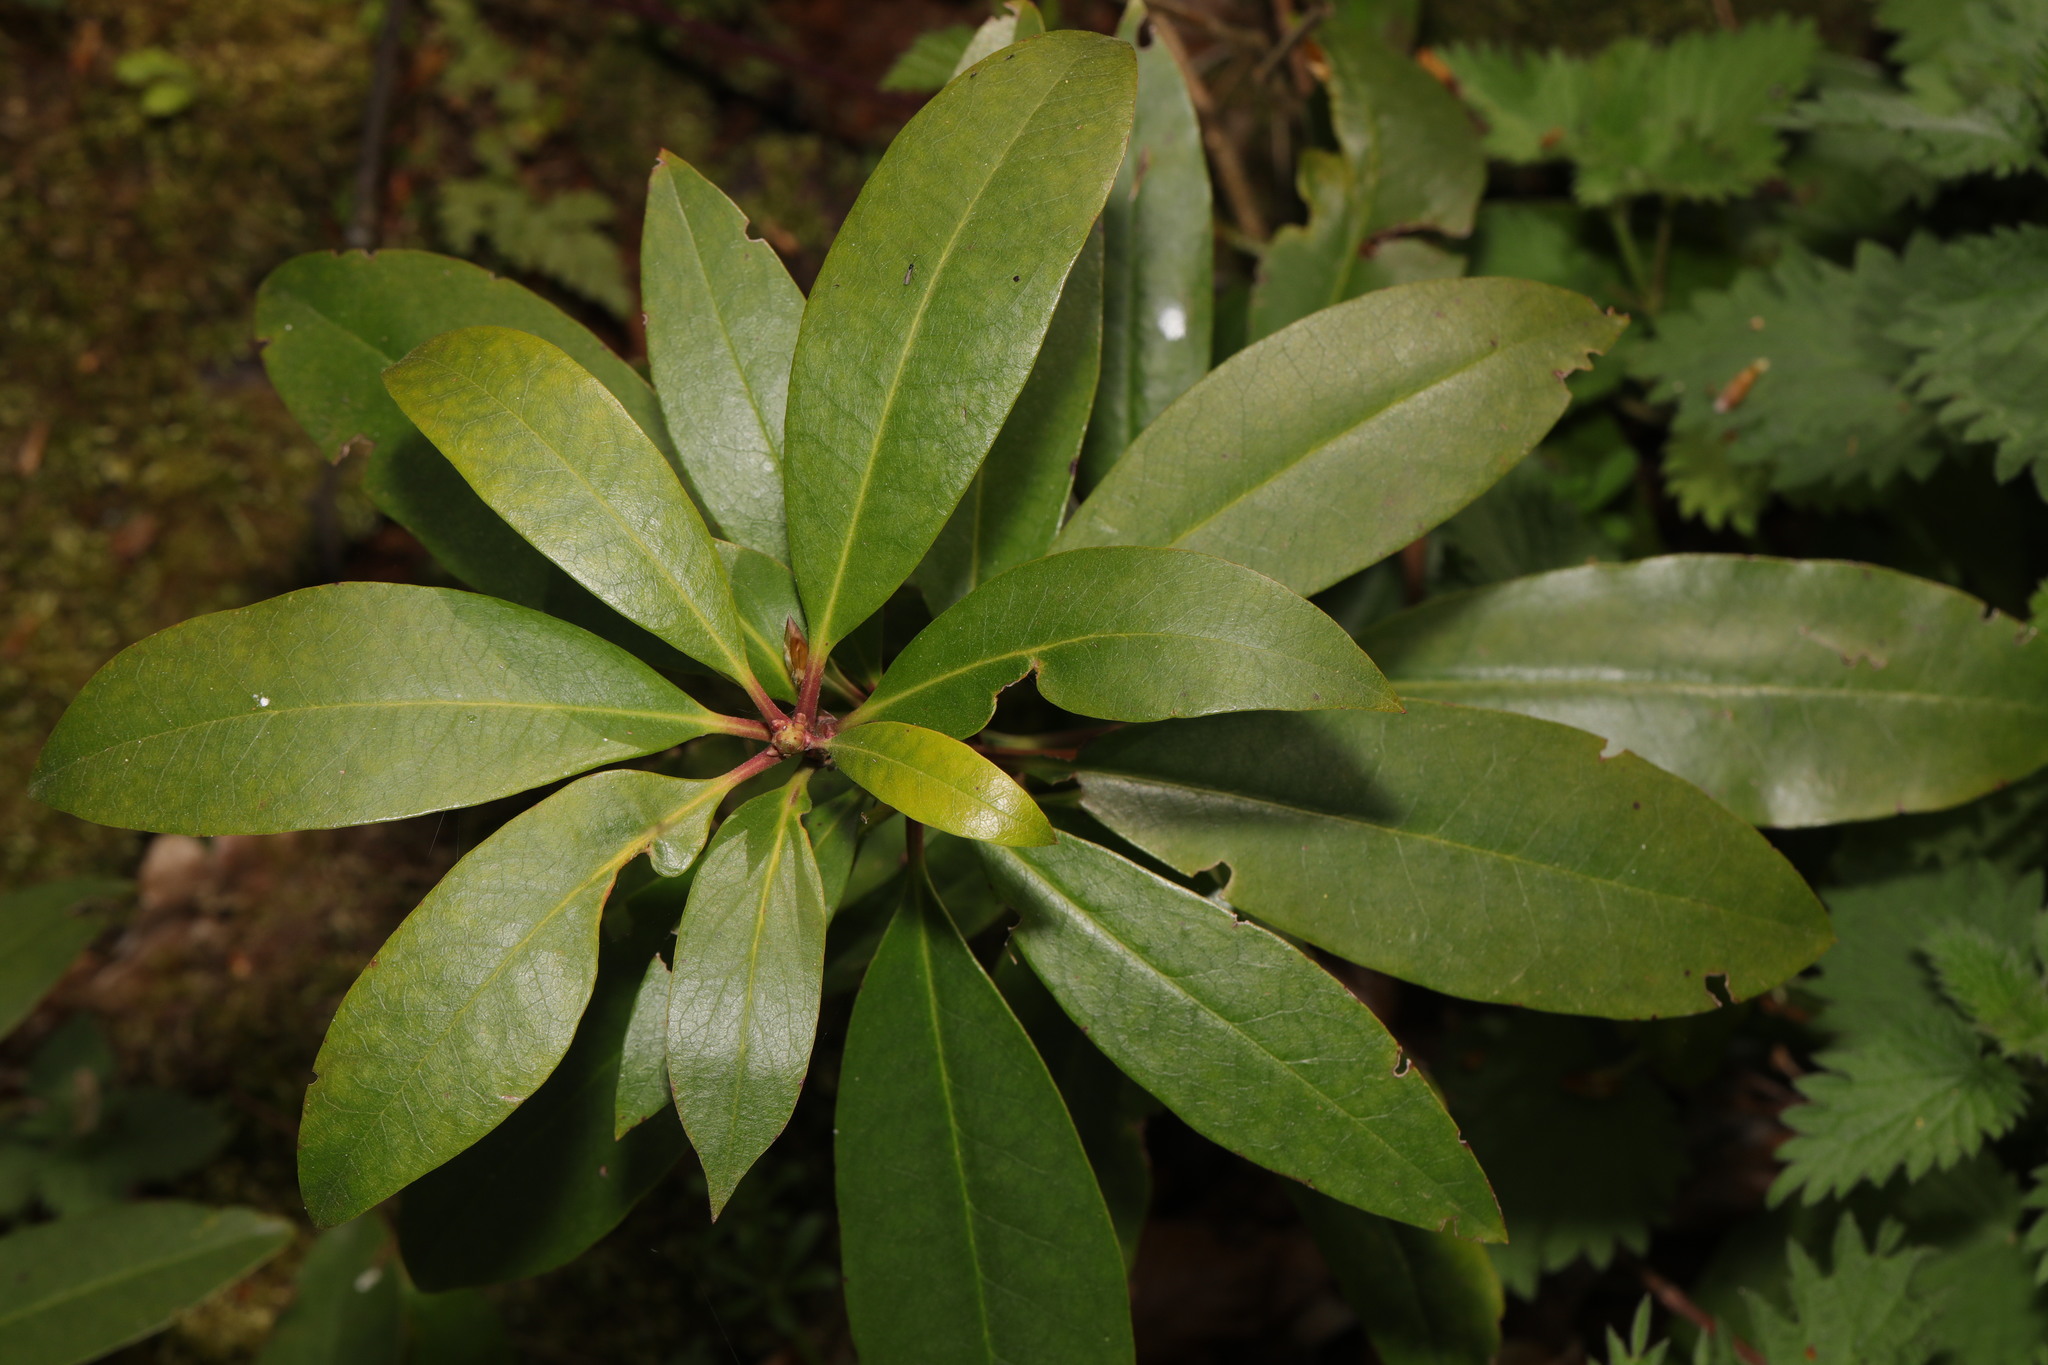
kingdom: Plantae
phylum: Tracheophyta
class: Magnoliopsida
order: Ericales
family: Ericaceae
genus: Rhododendron
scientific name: Rhododendron ponticum
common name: Rhododendron
